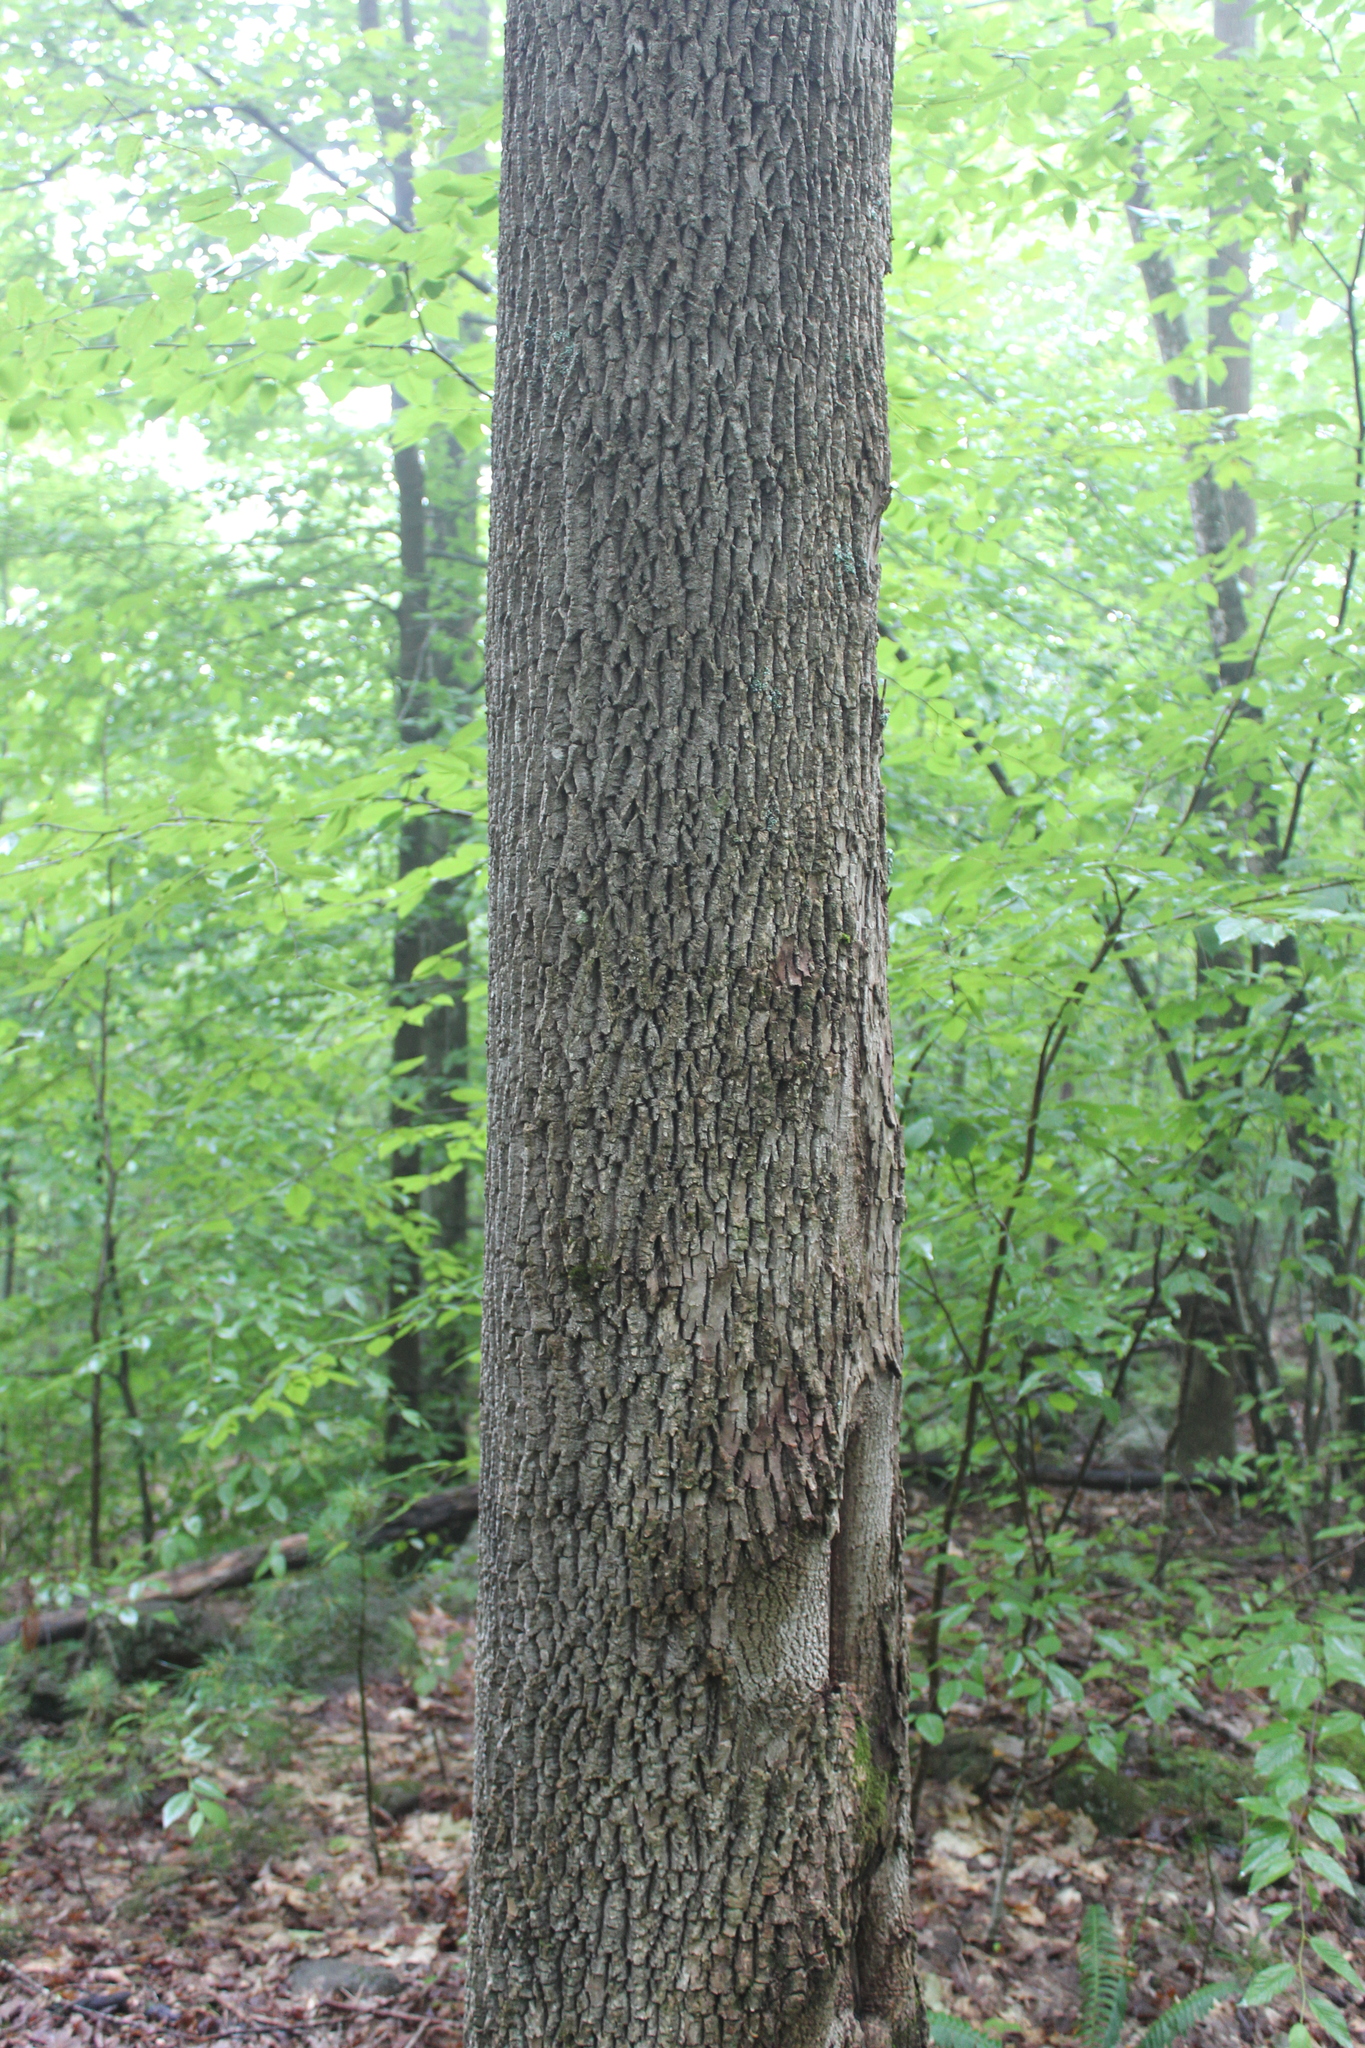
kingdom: Plantae
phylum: Tracheophyta
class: Magnoliopsida
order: Lamiales
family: Oleaceae
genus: Fraxinus
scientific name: Fraxinus americana
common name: White ash
